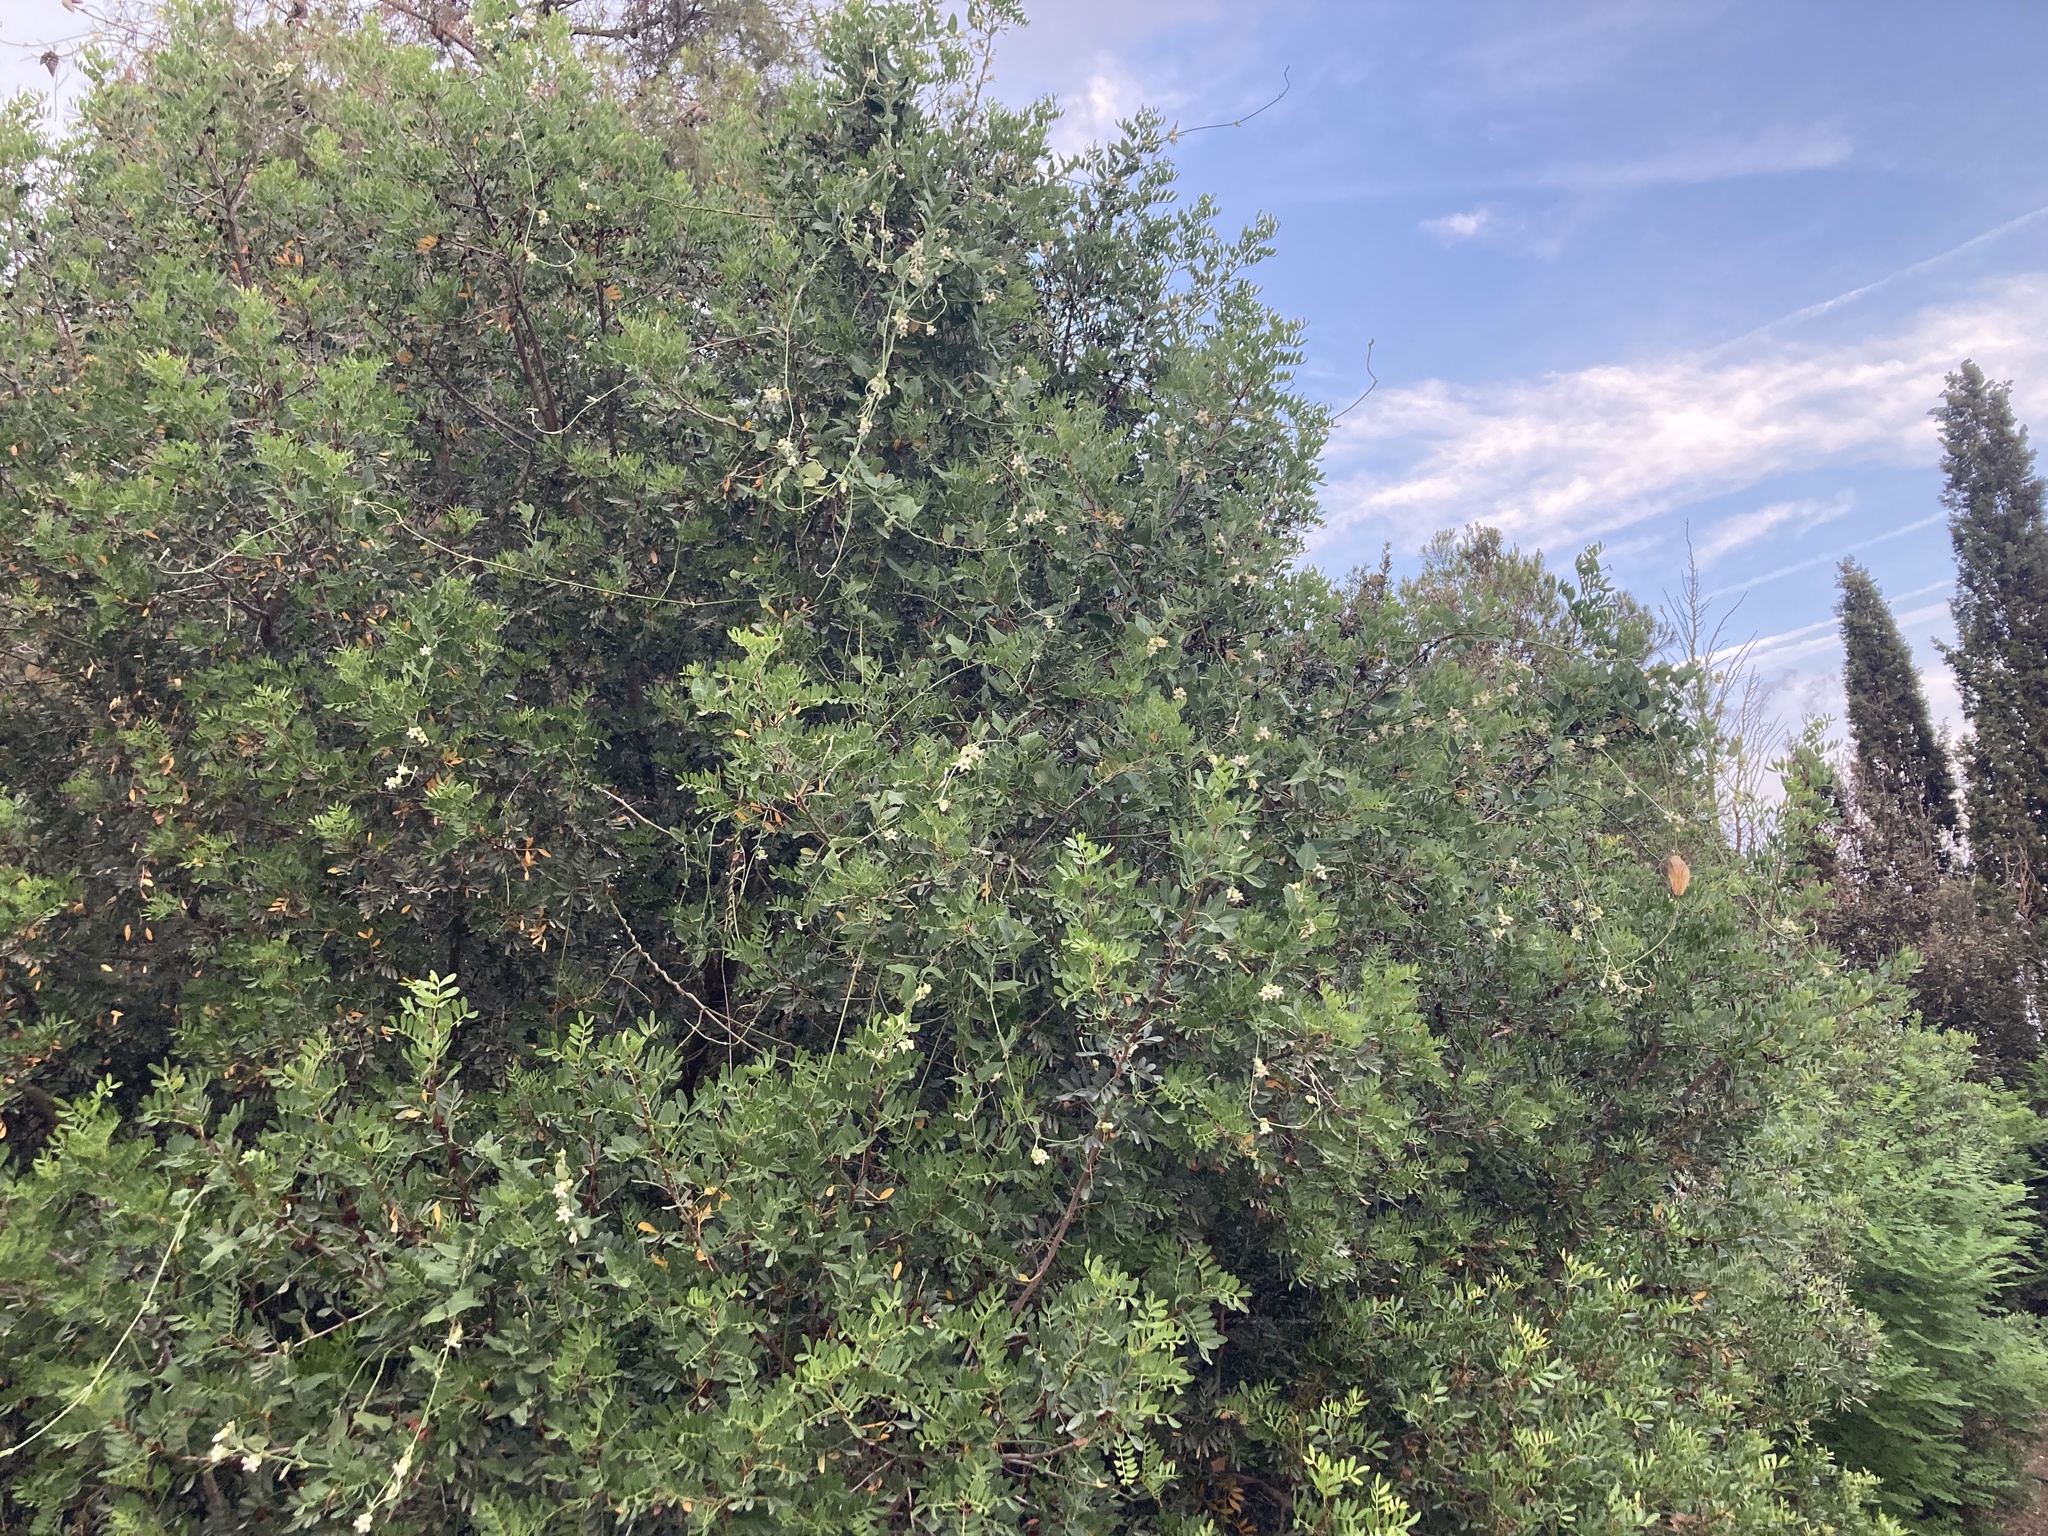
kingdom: Plantae
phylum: Tracheophyta
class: Magnoliopsida
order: Gentianales
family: Apocynaceae
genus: Araujia
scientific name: Araujia sericifera
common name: White bladderflower
